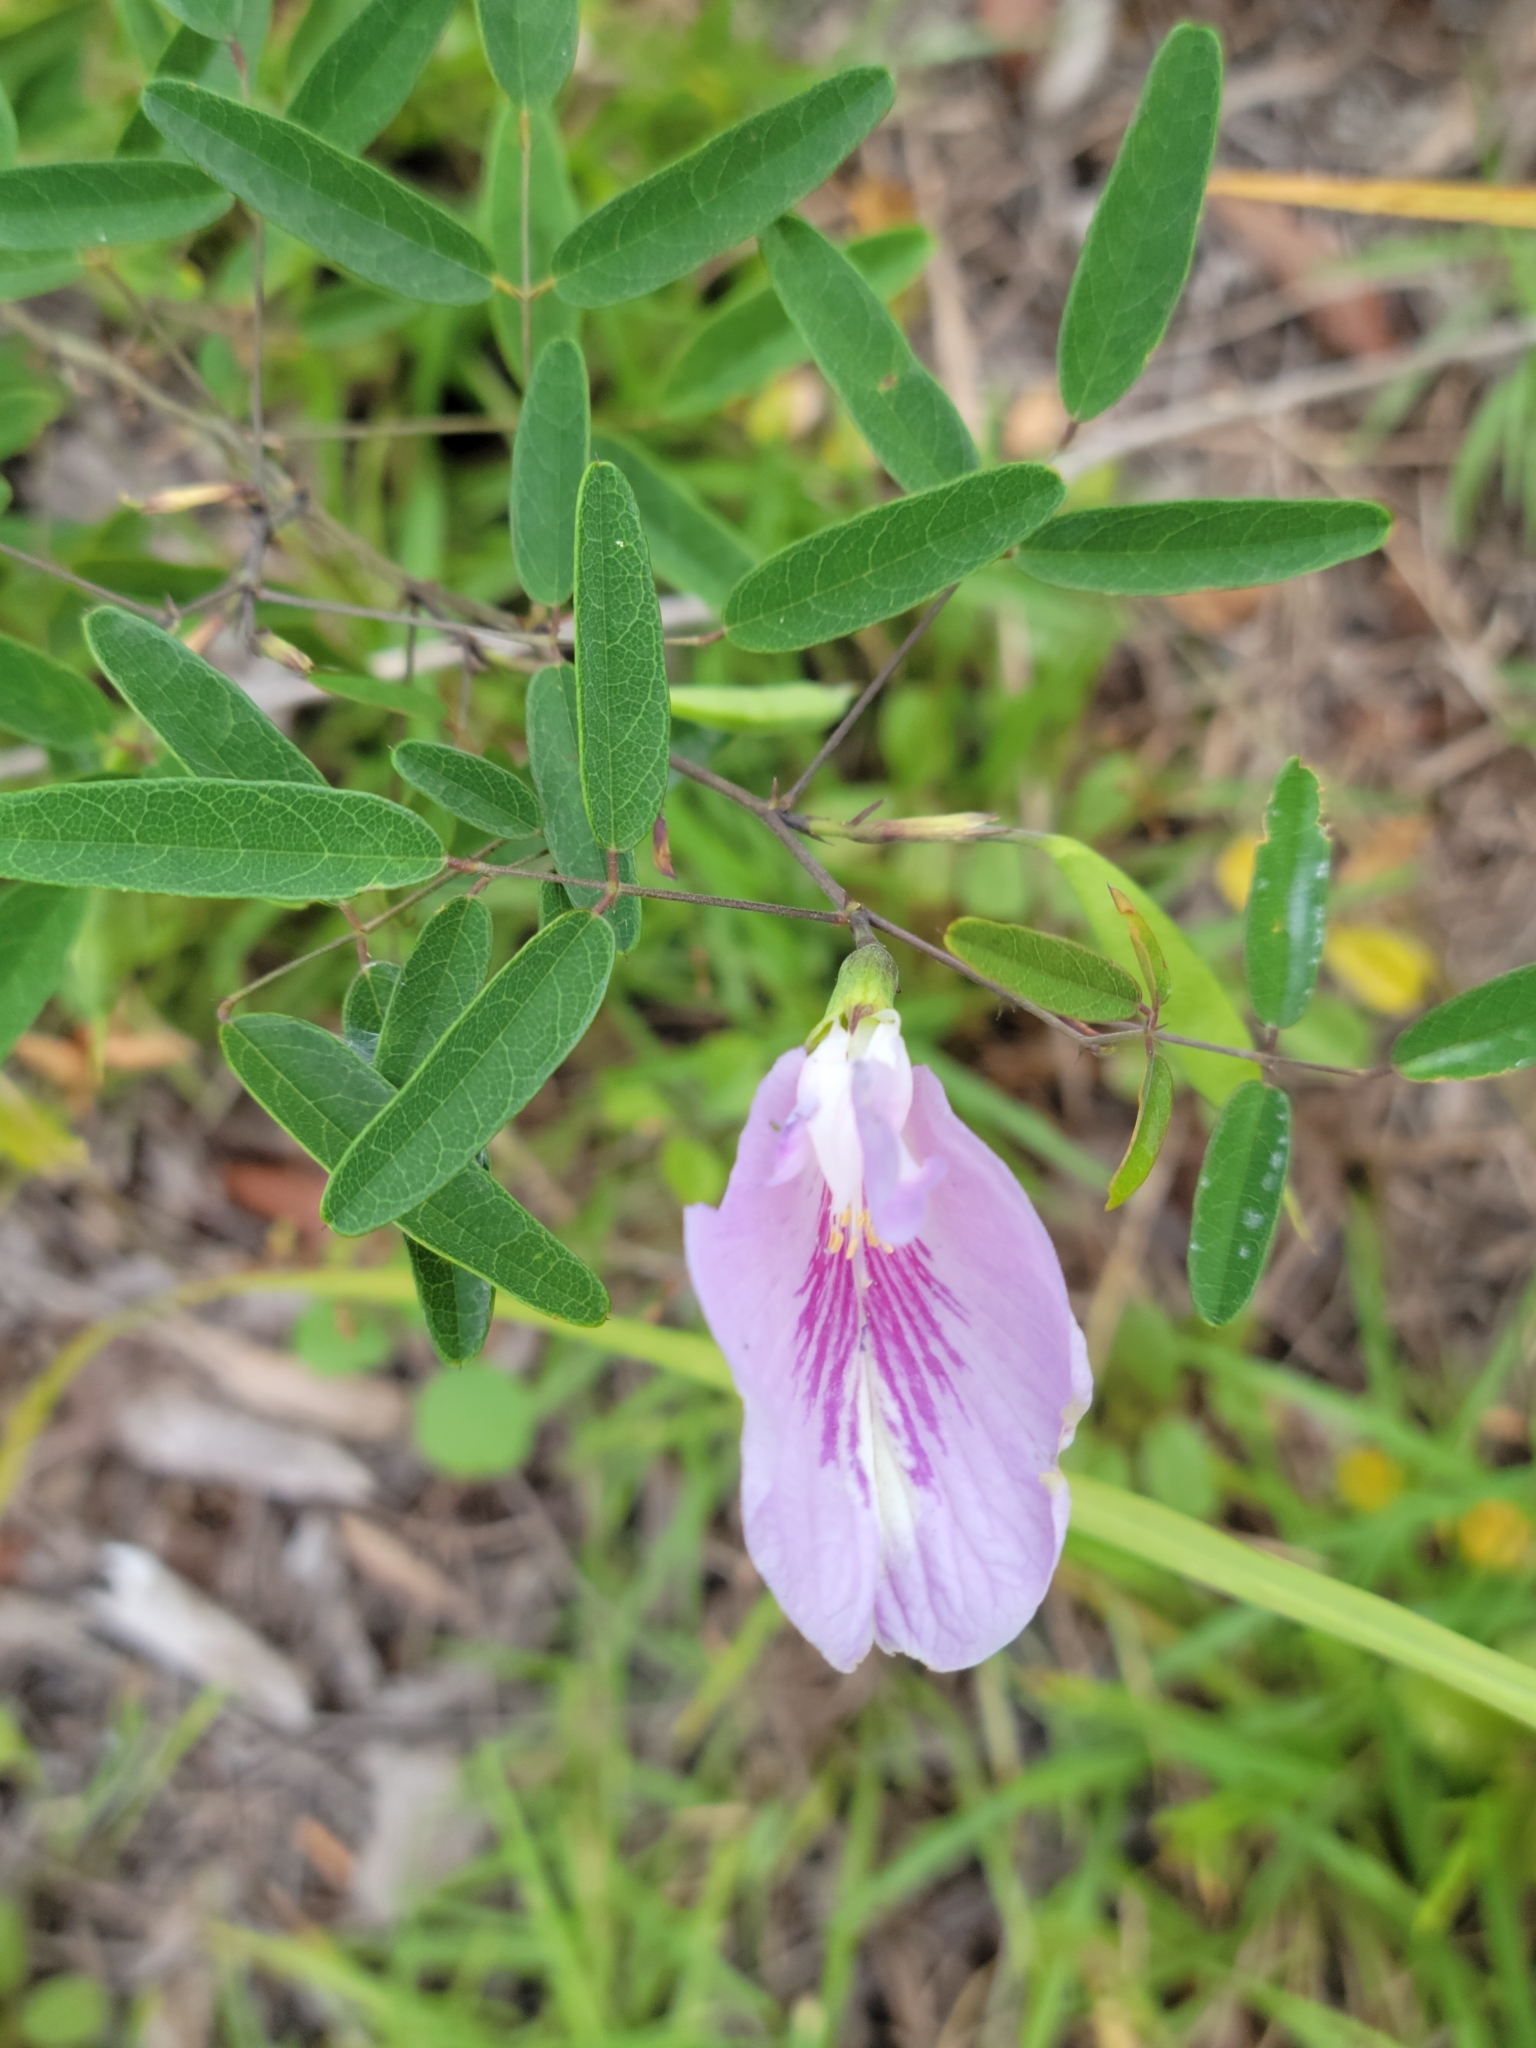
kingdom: Plantae
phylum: Tracheophyta
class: Magnoliopsida
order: Fabales
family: Fabaceae
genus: Clitoria
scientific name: Clitoria fragrans
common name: Pigeon-wings
